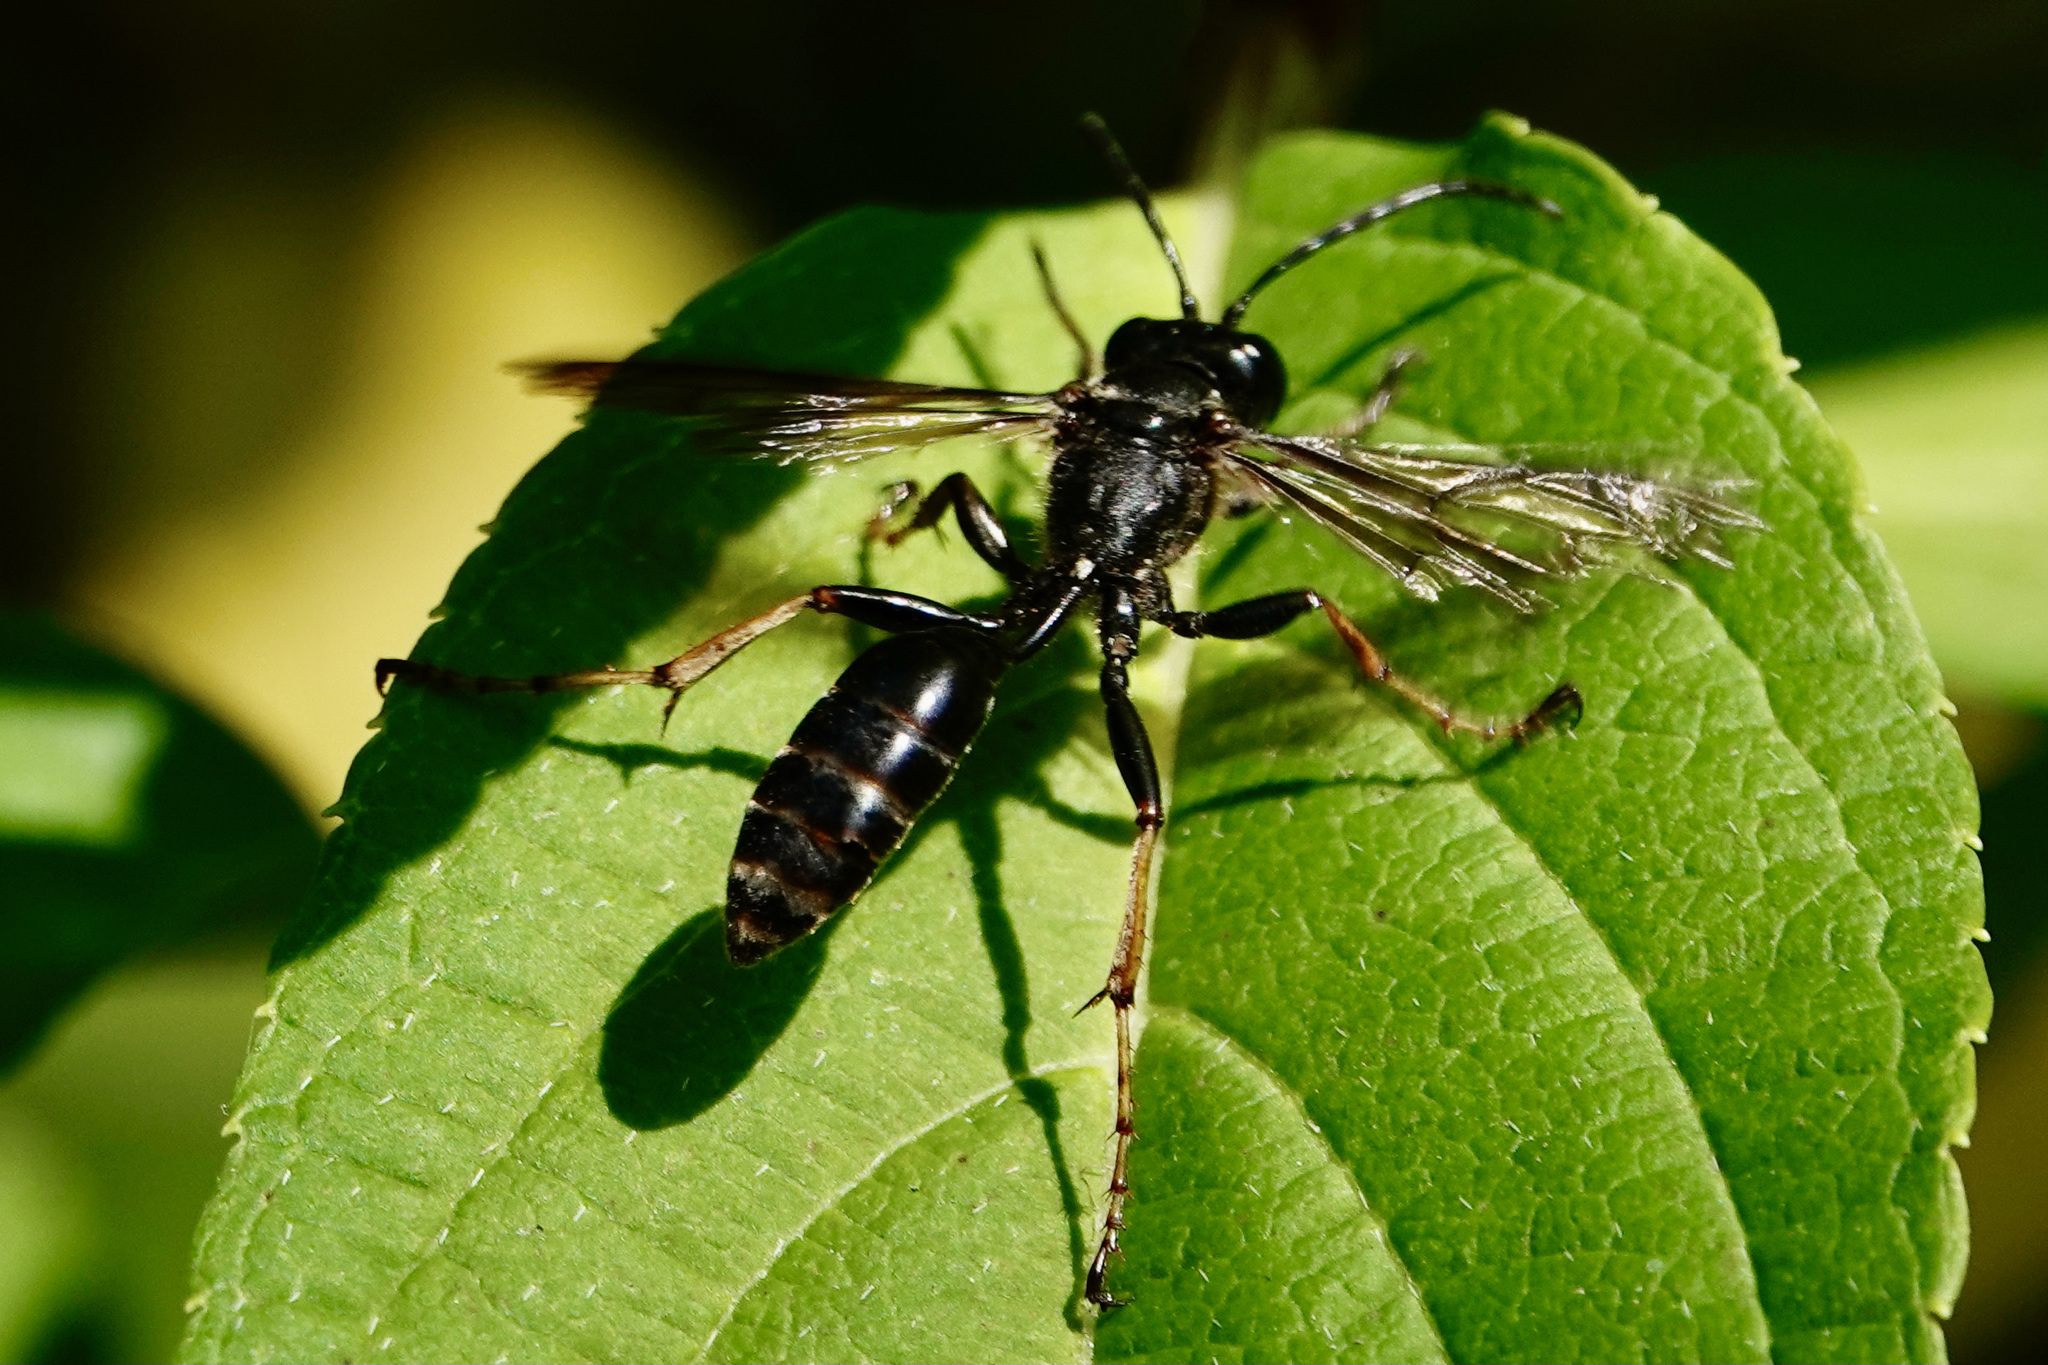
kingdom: Animalia
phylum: Arthropoda
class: Insecta
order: Hymenoptera
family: Sphecidae
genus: Isodontia
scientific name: Isodontia auripes
